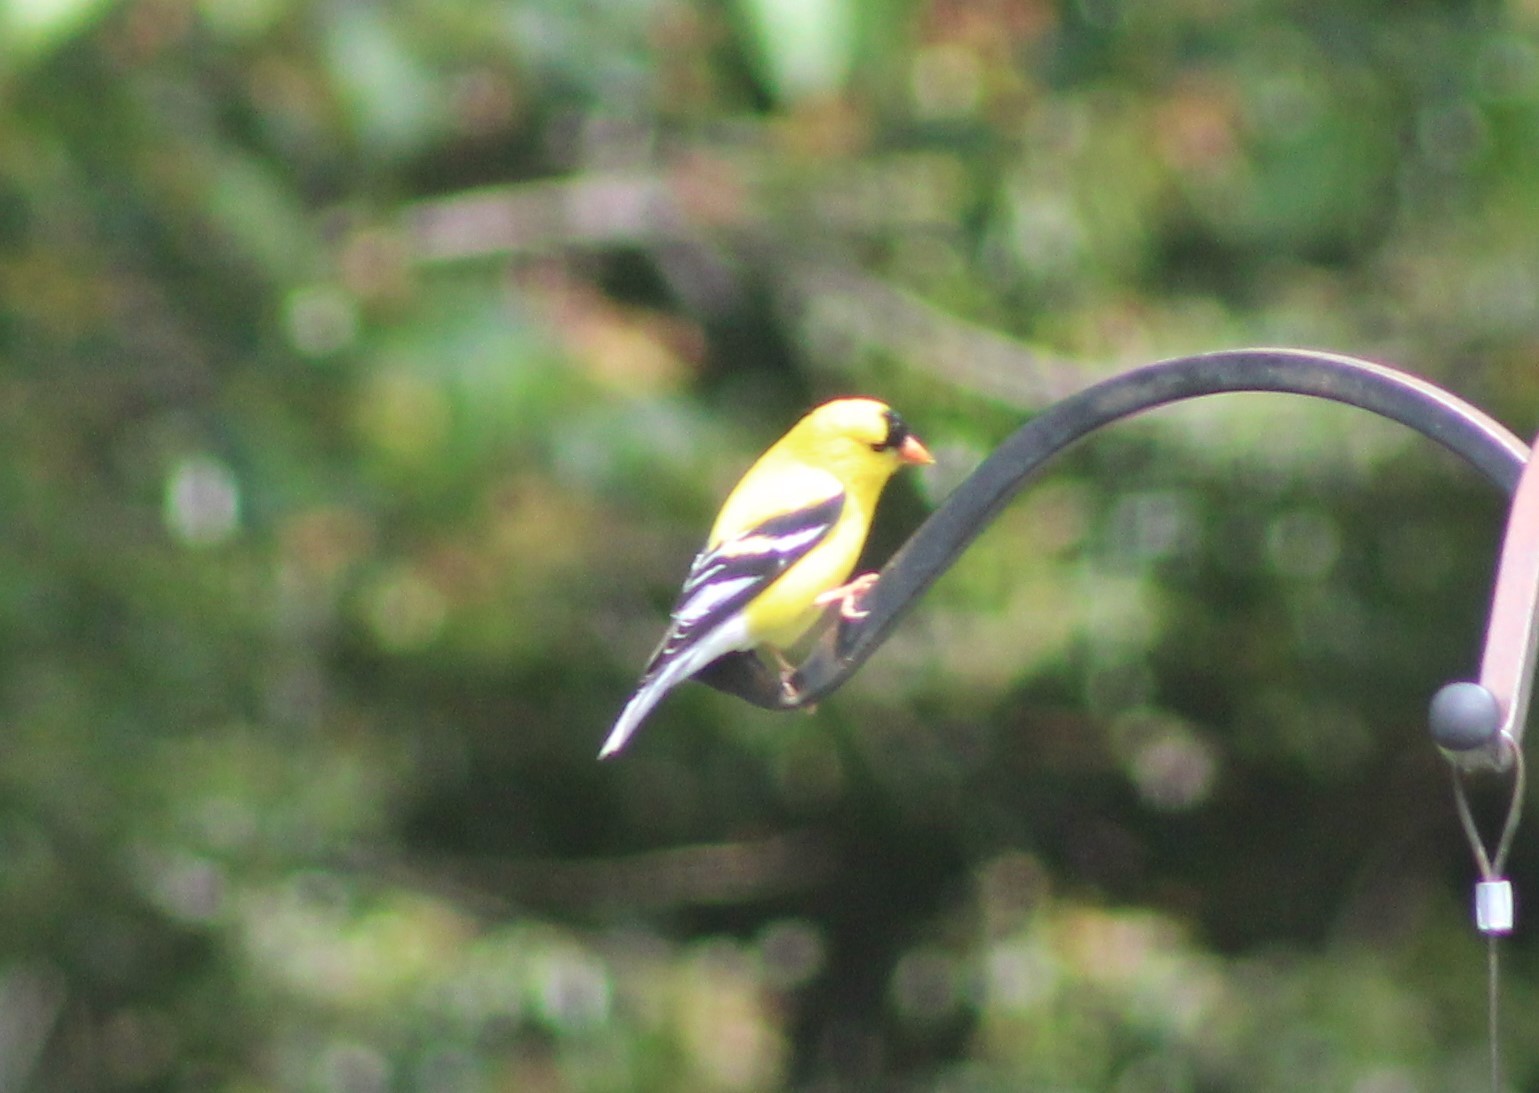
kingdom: Animalia
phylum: Chordata
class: Aves
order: Passeriformes
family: Fringillidae
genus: Spinus
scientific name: Spinus tristis
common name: American goldfinch
